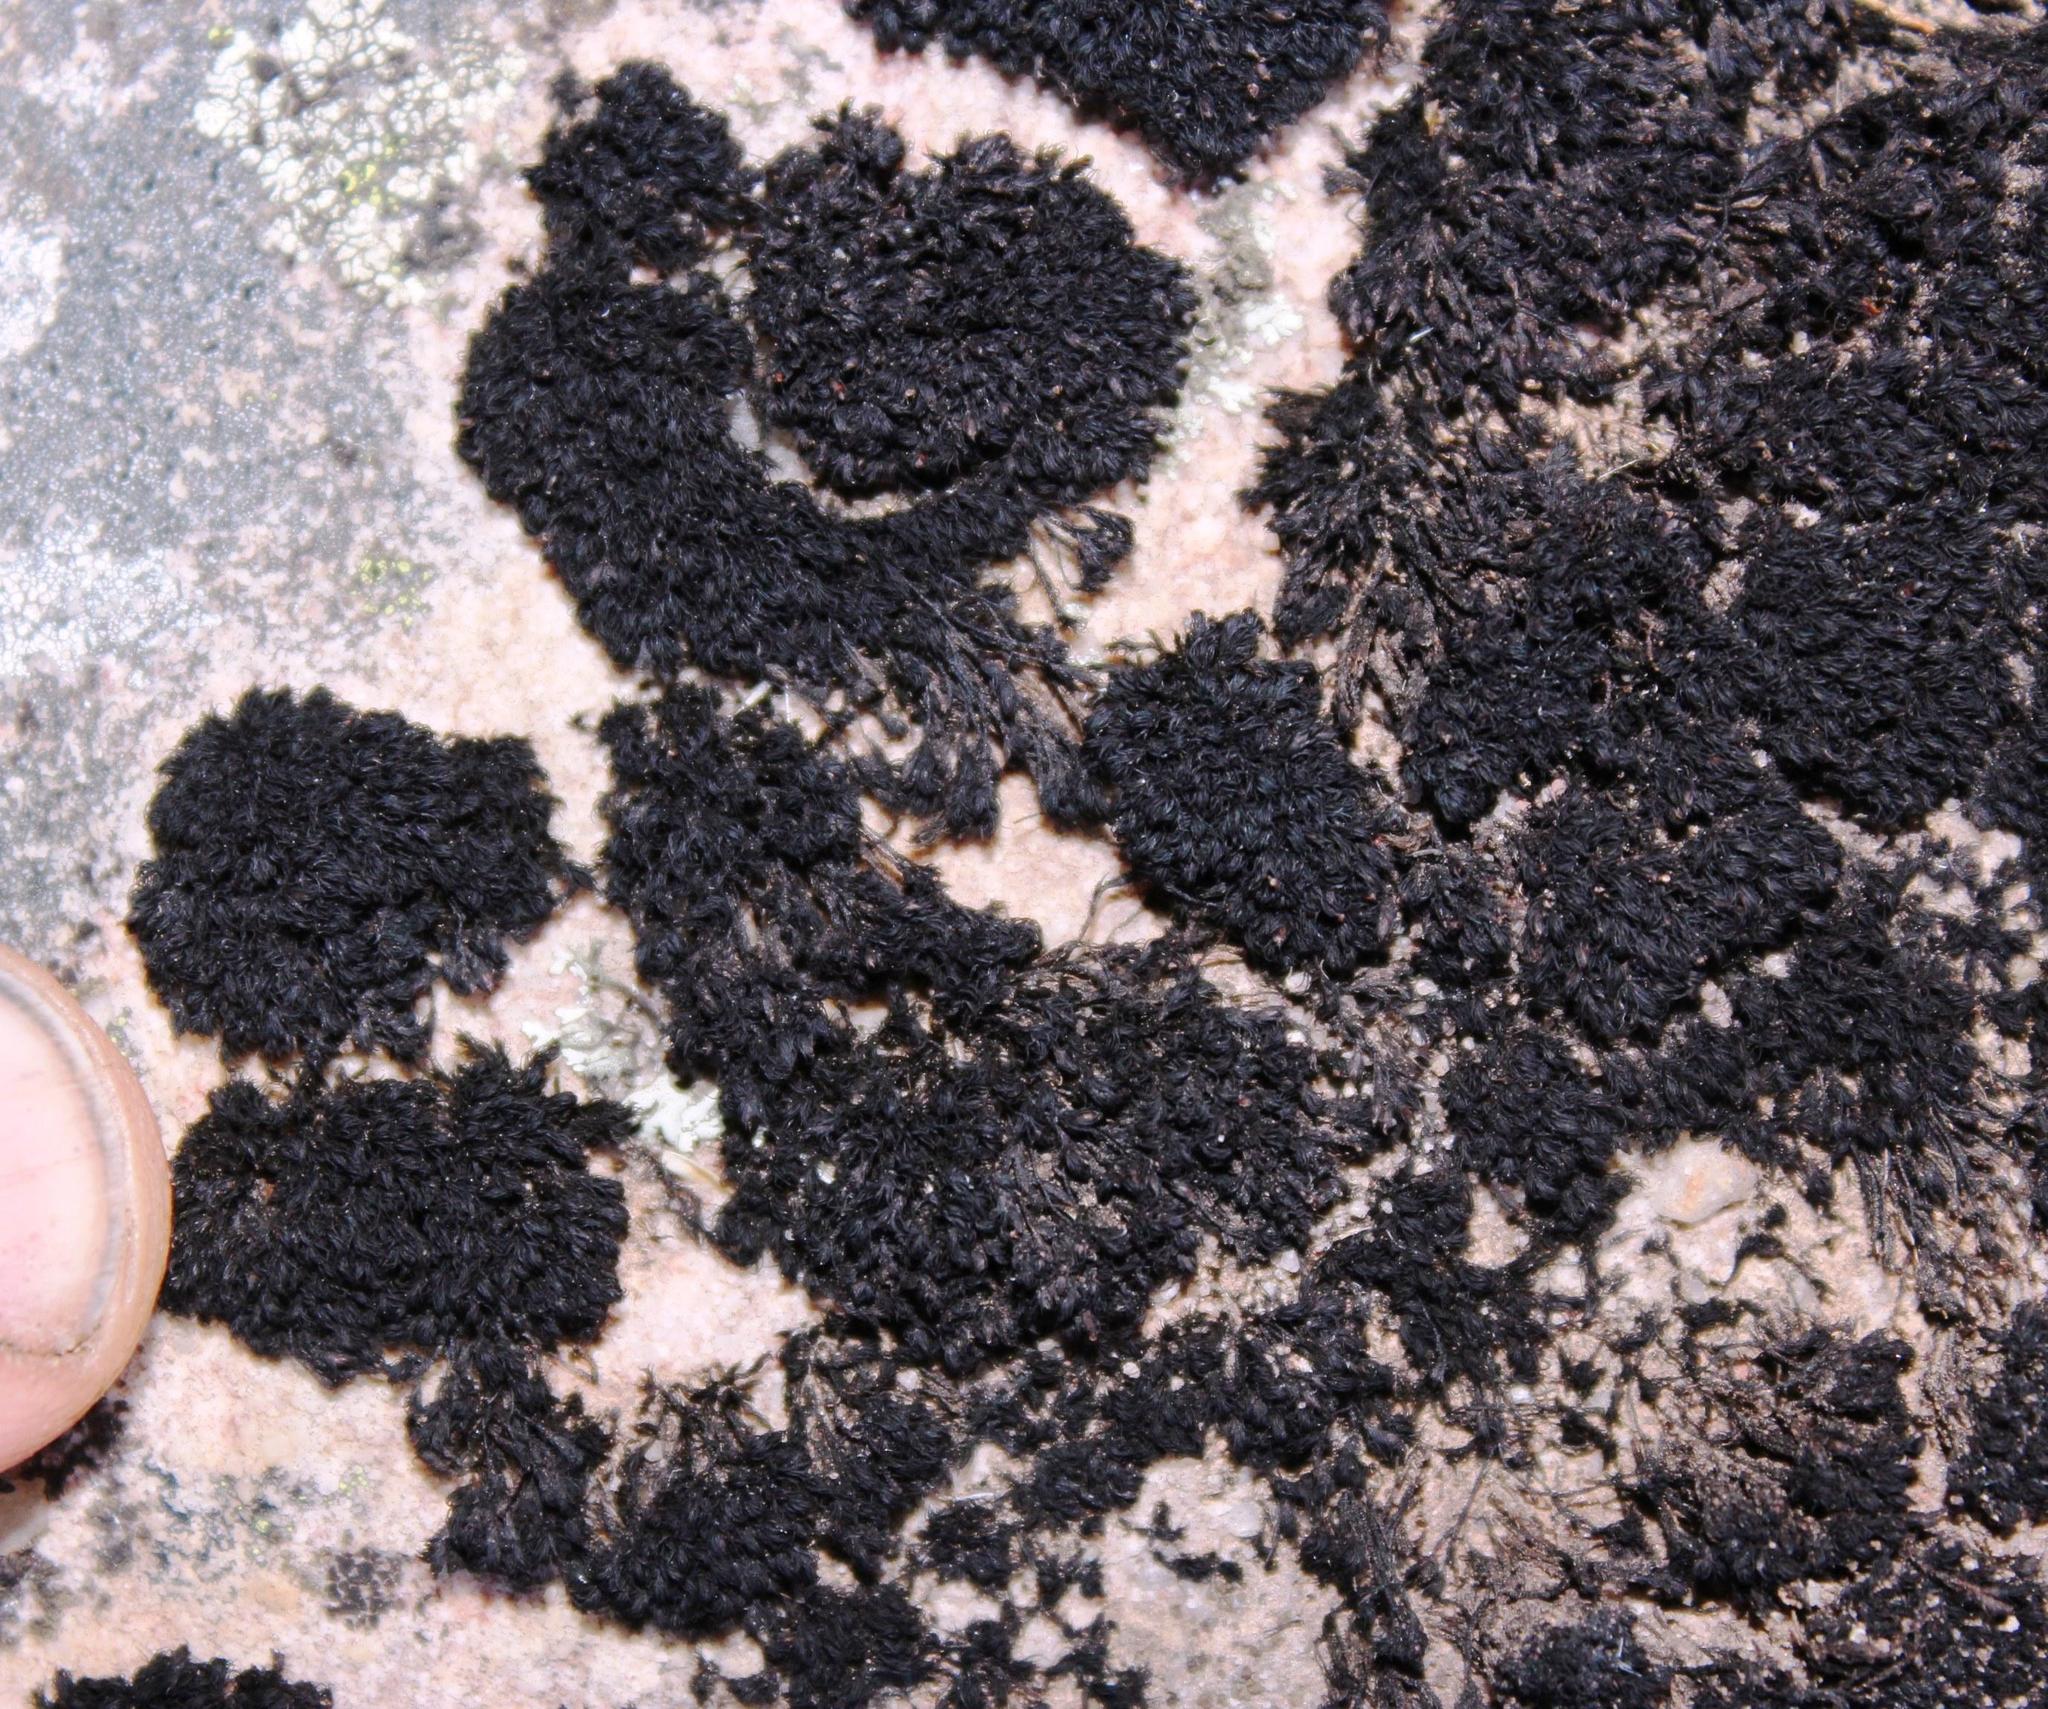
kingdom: Plantae
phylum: Bryophyta
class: Andreaeopsida
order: Andreaeales
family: Andreaeaceae
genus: Andreaea
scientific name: Andreaea subulata
